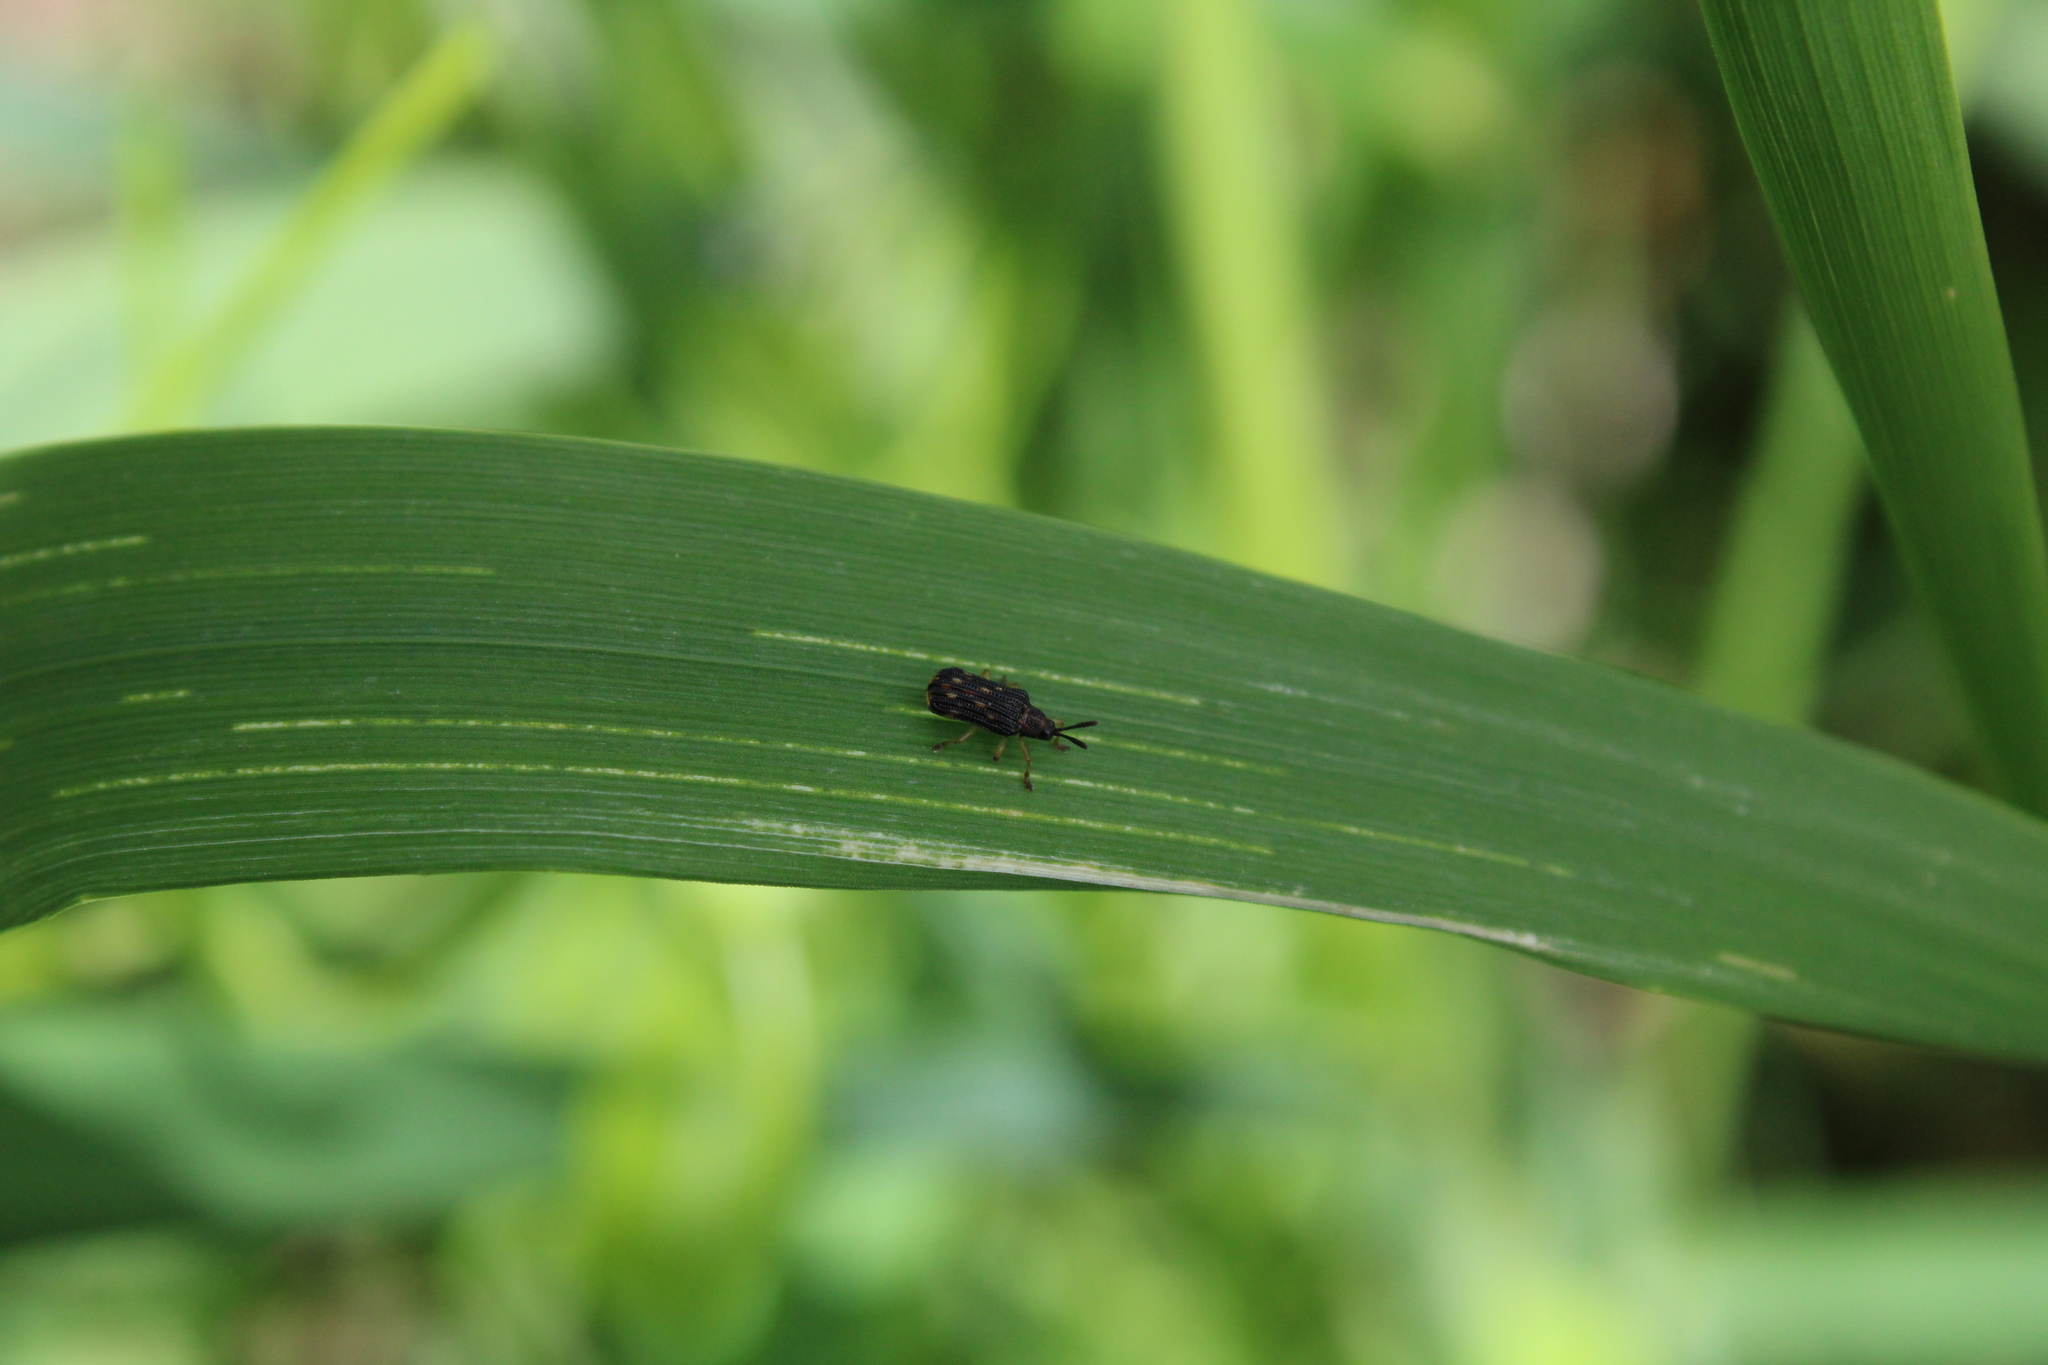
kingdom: Animalia
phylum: Arthropoda
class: Insecta
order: Coleoptera
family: Chrysomelidae
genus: Sumitrosis
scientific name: Sumitrosis inaequalis
